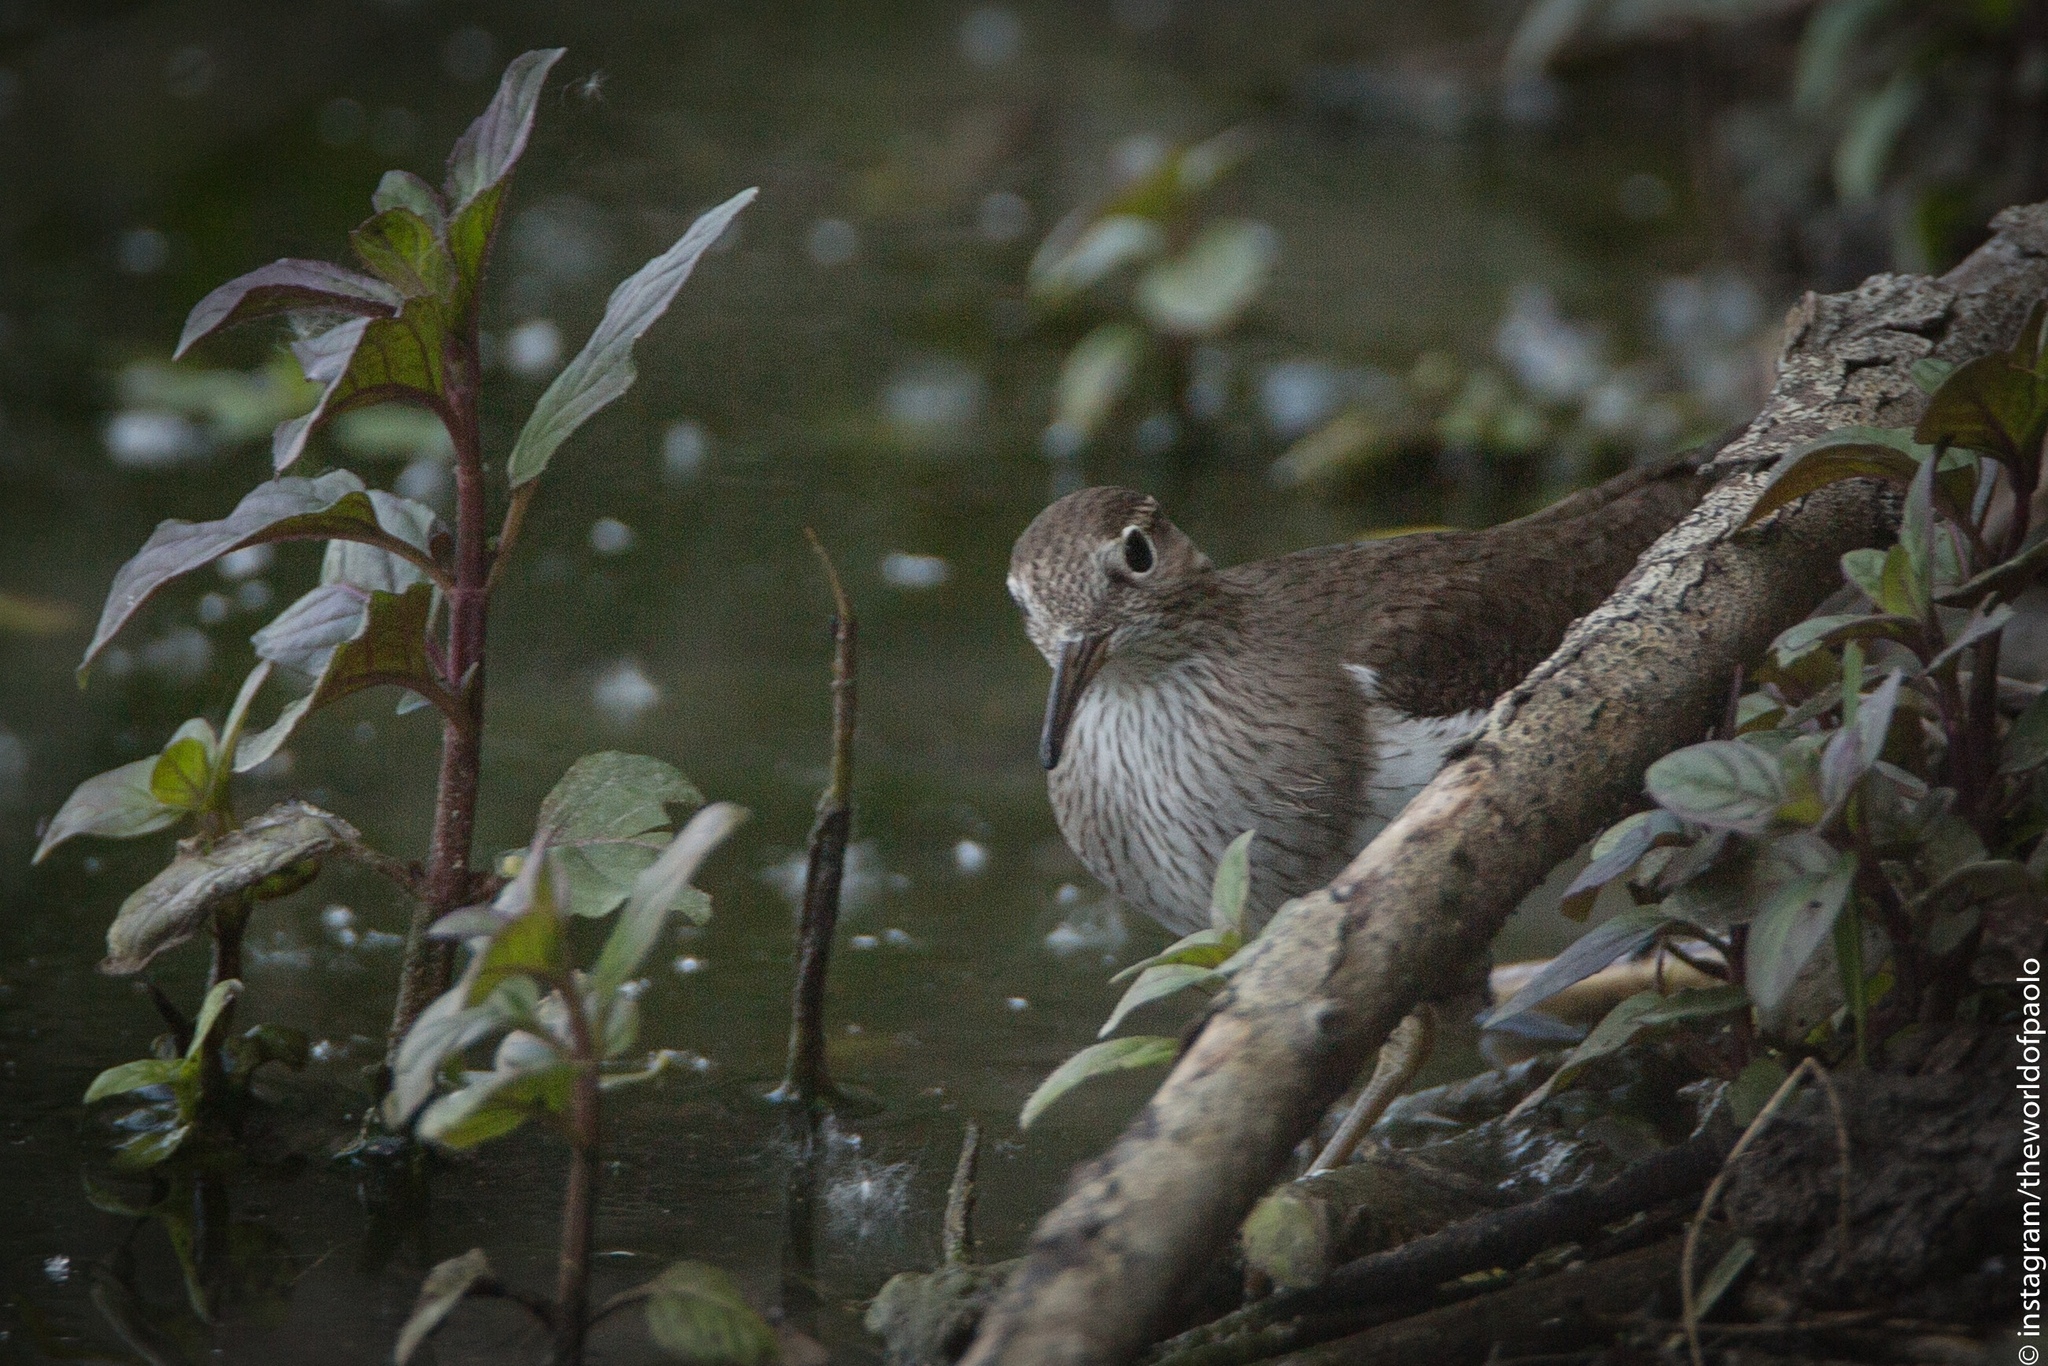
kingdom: Animalia
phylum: Chordata
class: Aves
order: Charadriiformes
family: Scolopacidae
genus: Actitis
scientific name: Actitis hypoleucos
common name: Common sandpiper
